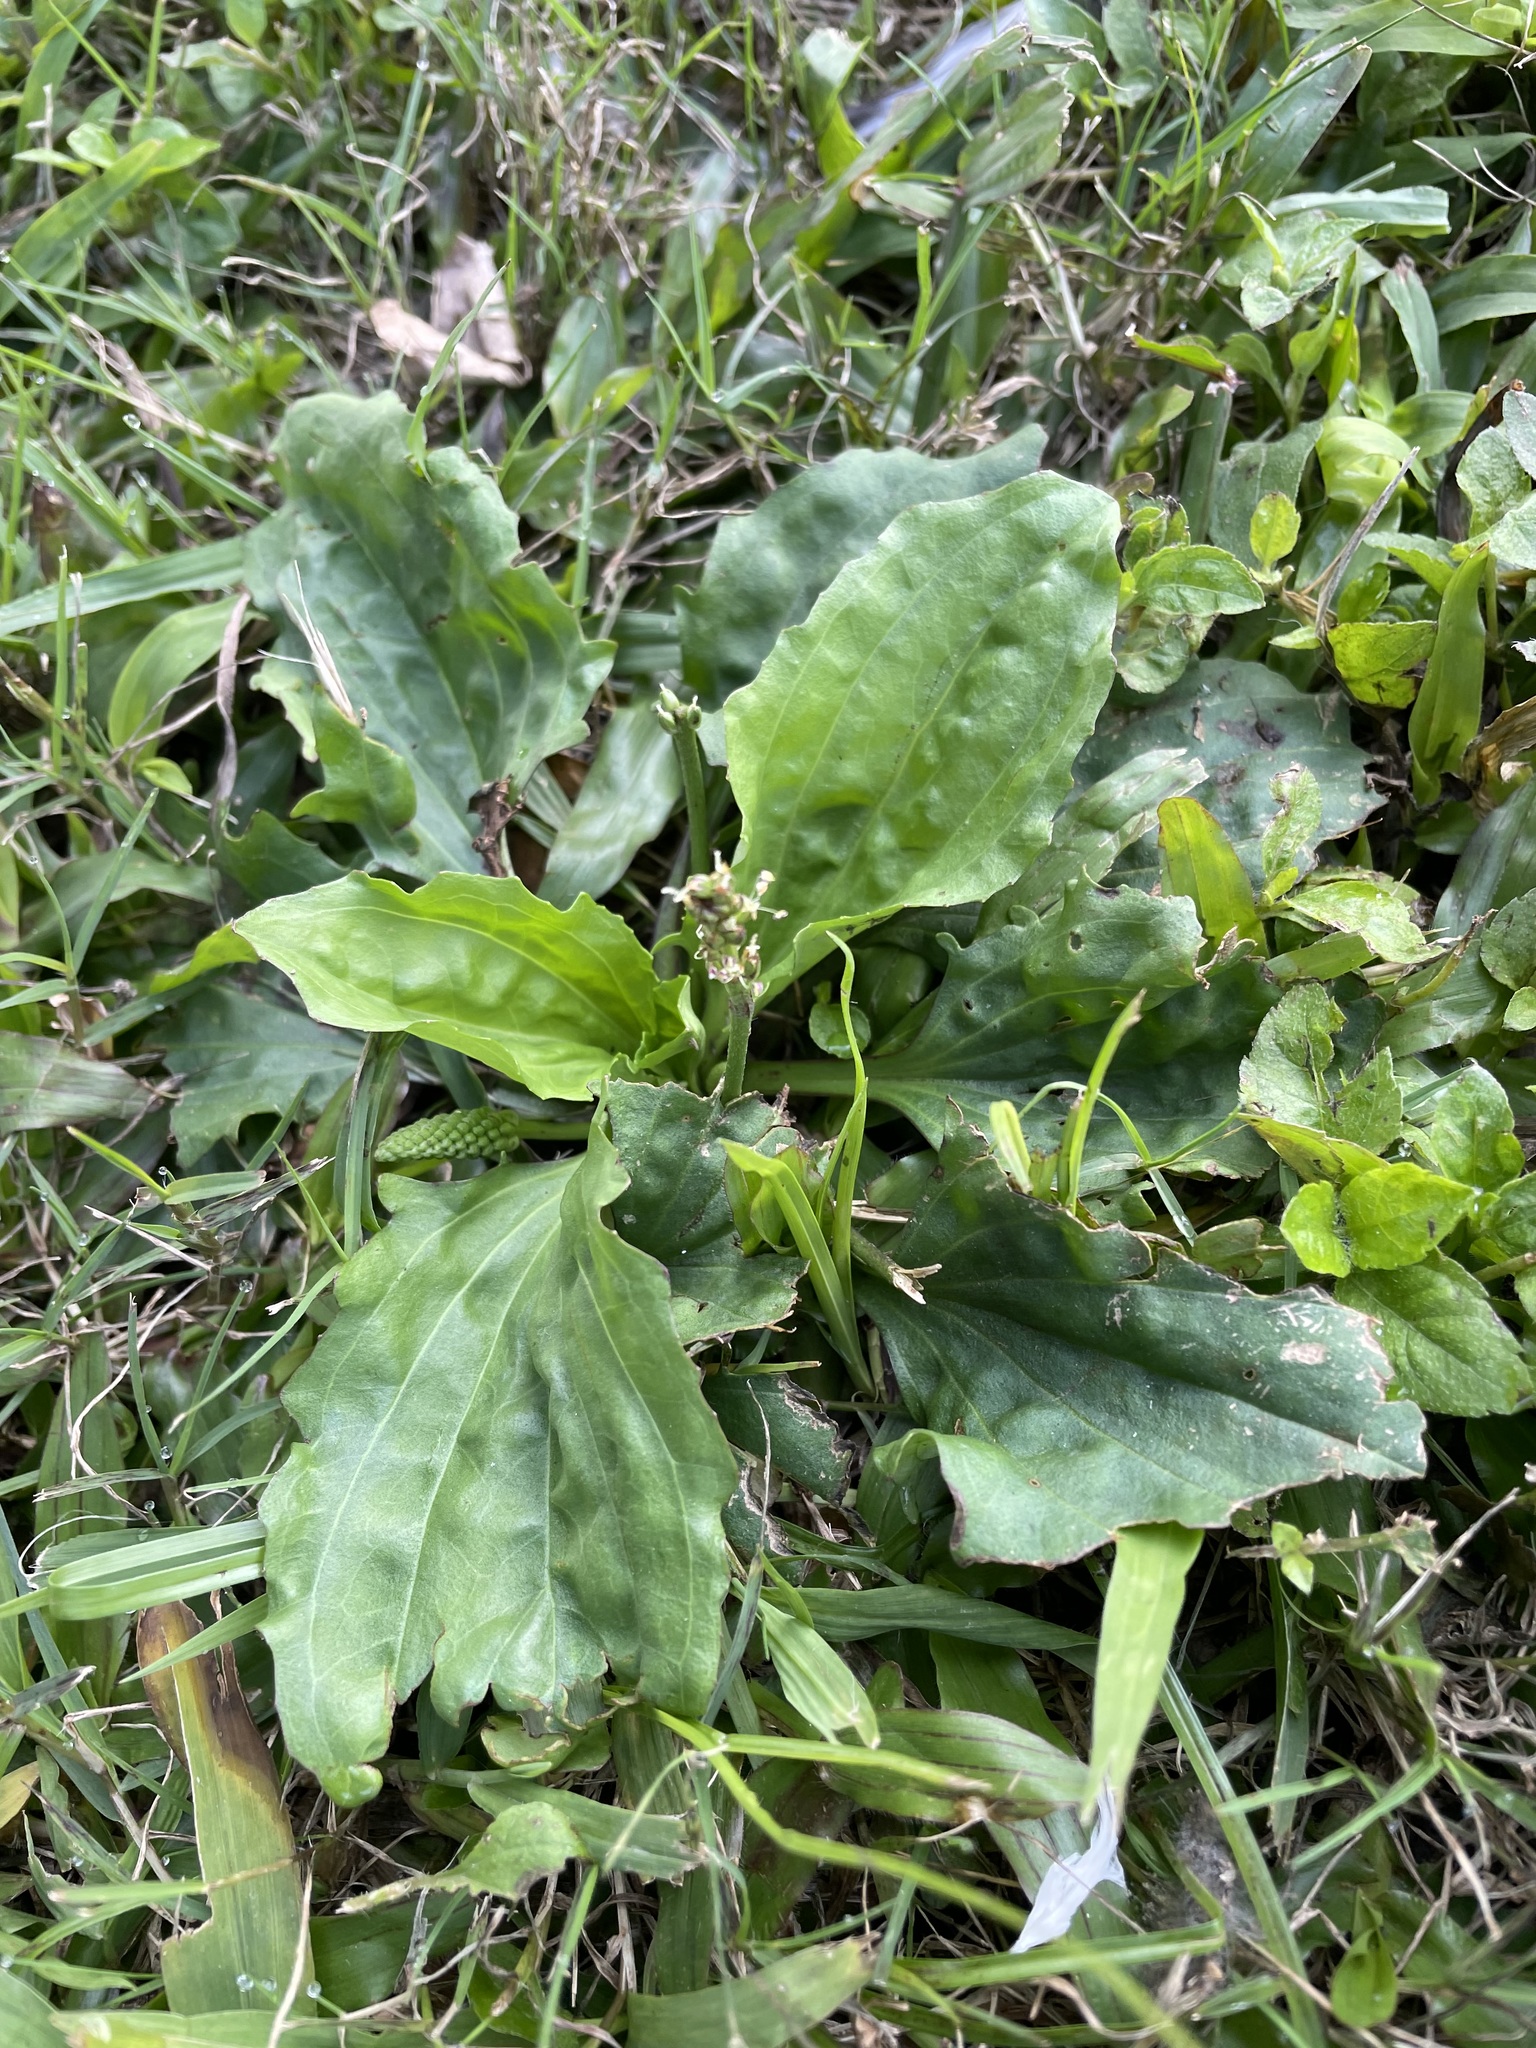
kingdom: Plantae
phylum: Tracheophyta
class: Magnoliopsida
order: Lamiales
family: Plantaginaceae
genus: Plantago
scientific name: Plantago asiatica
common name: Psyllium
